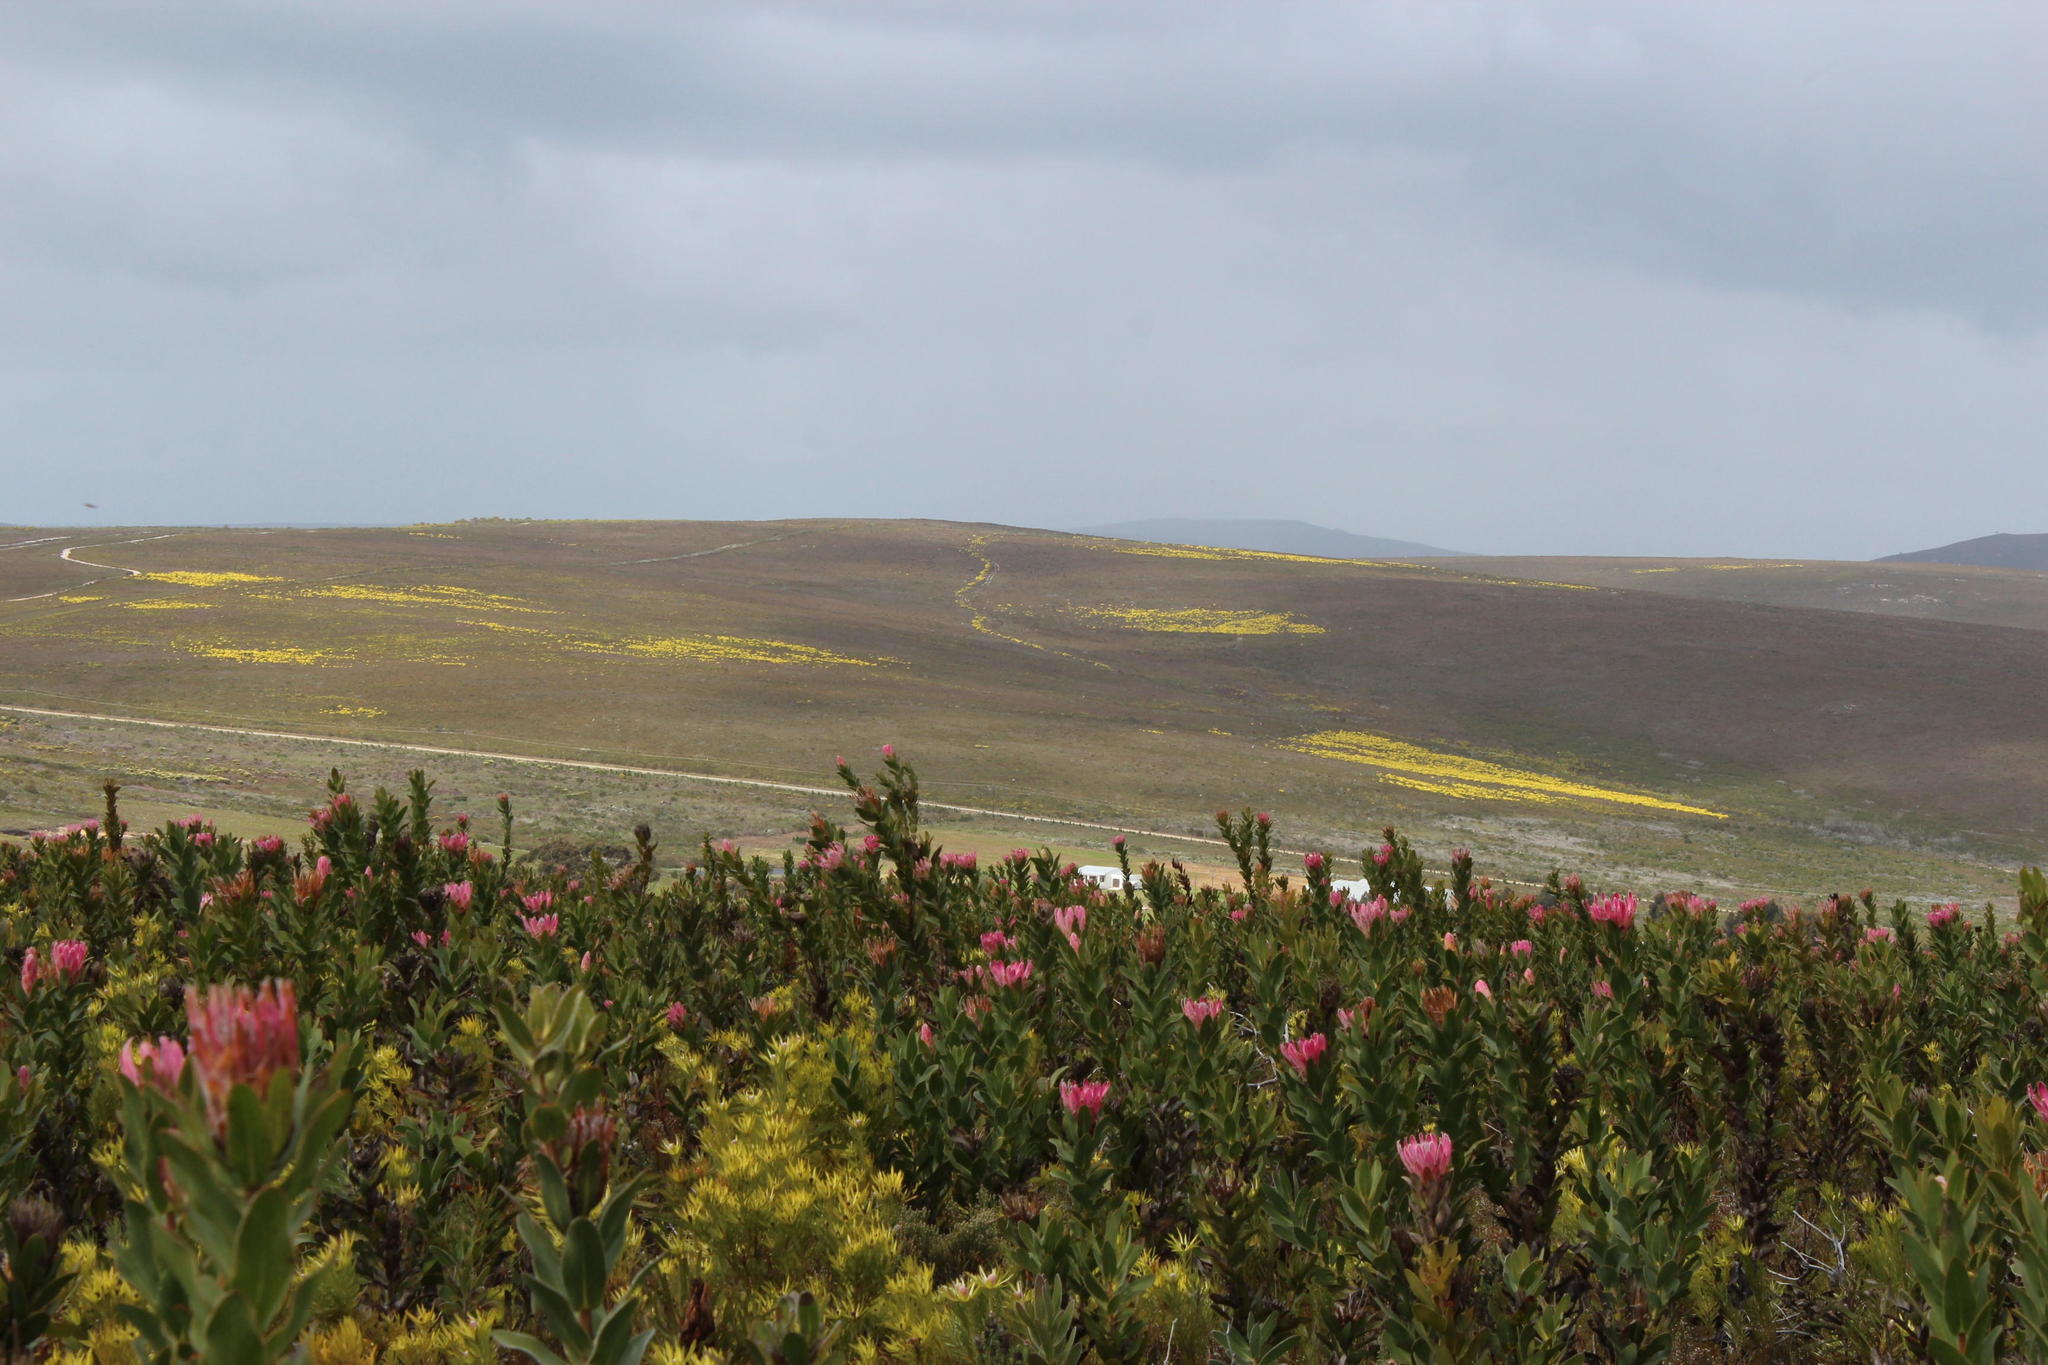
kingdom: Plantae
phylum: Tracheophyta
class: Magnoliopsida
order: Proteales
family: Proteaceae
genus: Leucadendron
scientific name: Leucadendron platyspermum
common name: Plate-seed conebush
